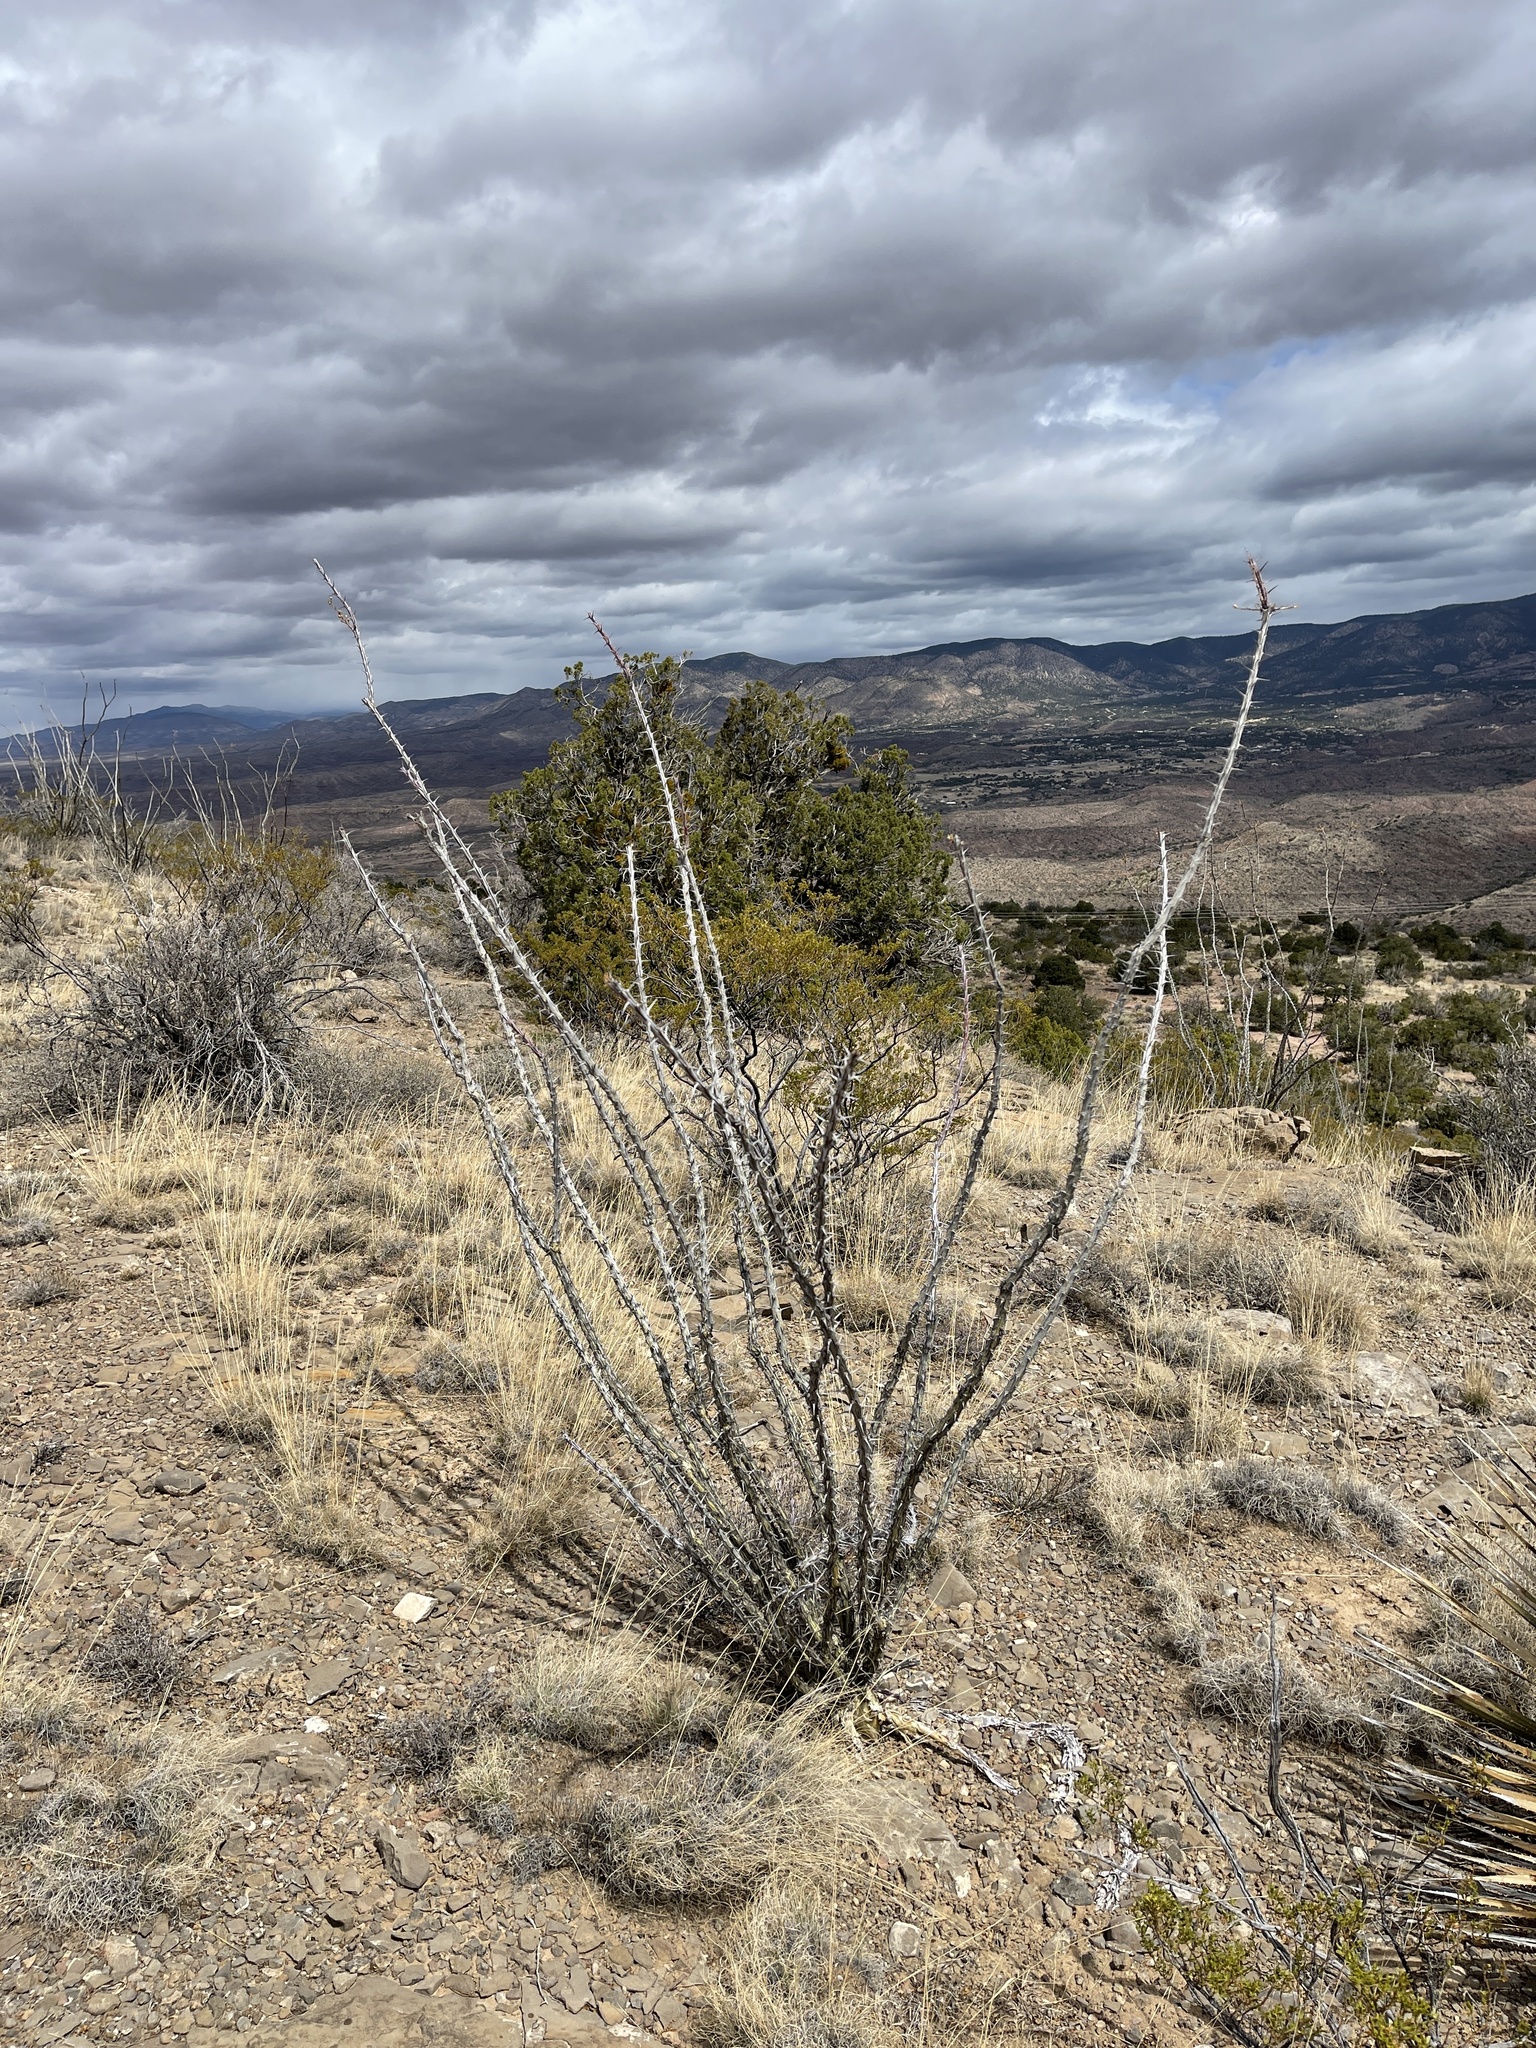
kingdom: Plantae
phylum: Tracheophyta
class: Magnoliopsida
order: Ericales
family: Fouquieriaceae
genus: Fouquieria
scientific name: Fouquieria splendens
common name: Vine-cactus
